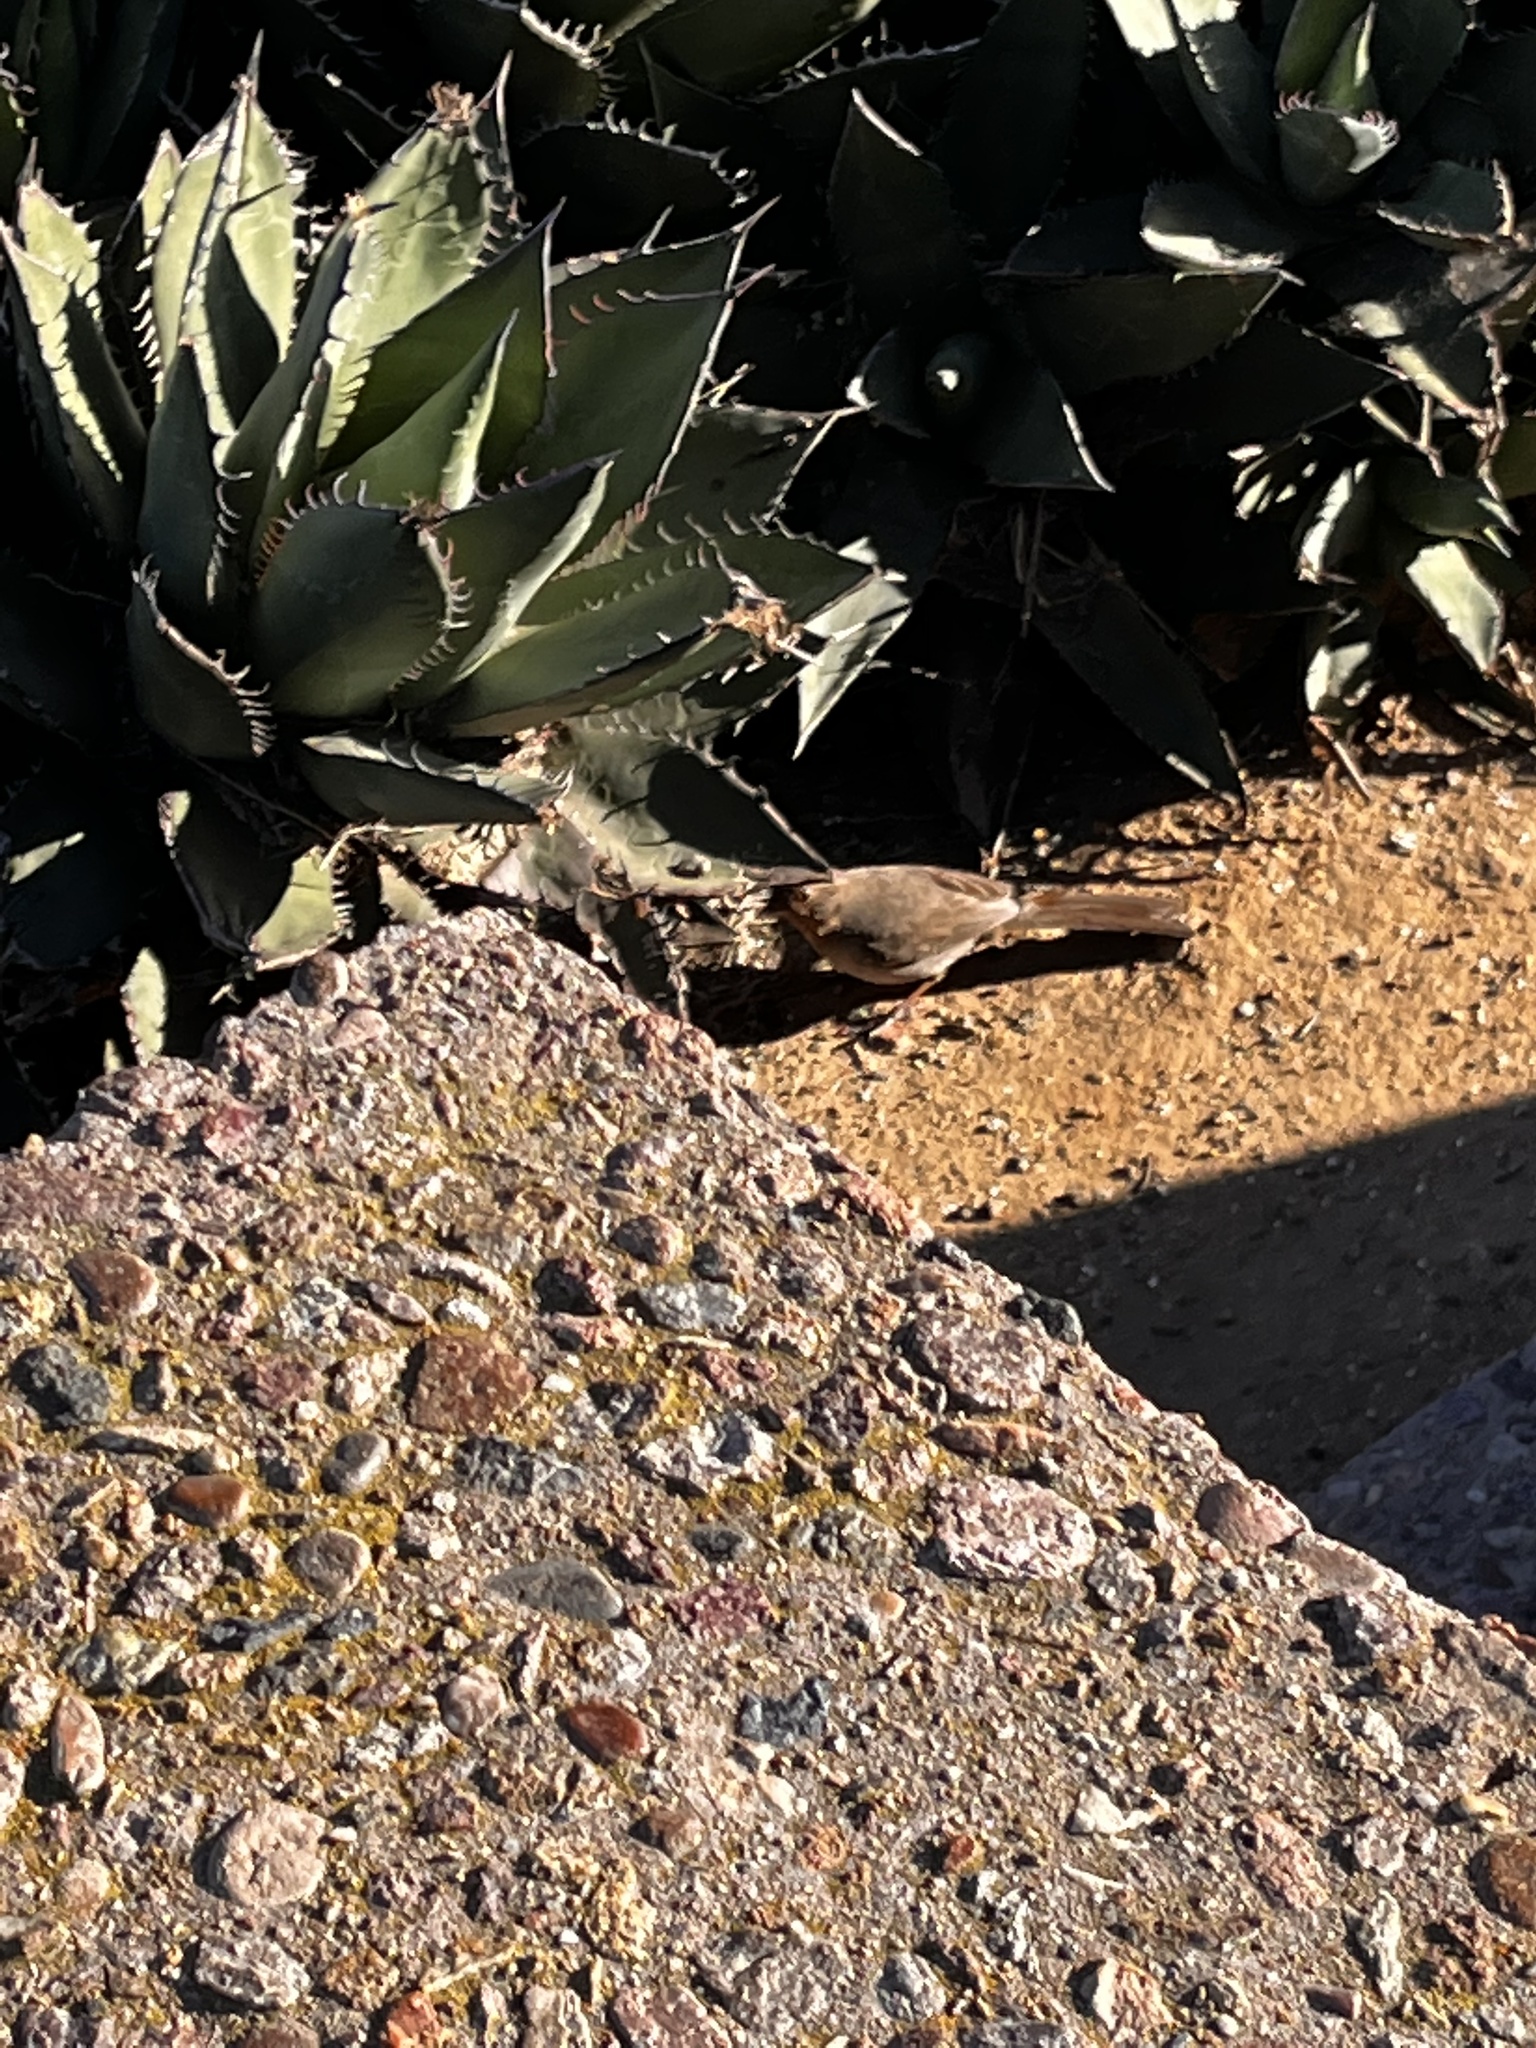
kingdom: Animalia
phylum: Chordata
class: Aves
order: Passeriformes
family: Passerellidae
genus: Melozone
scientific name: Melozone crissalis
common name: California towhee
